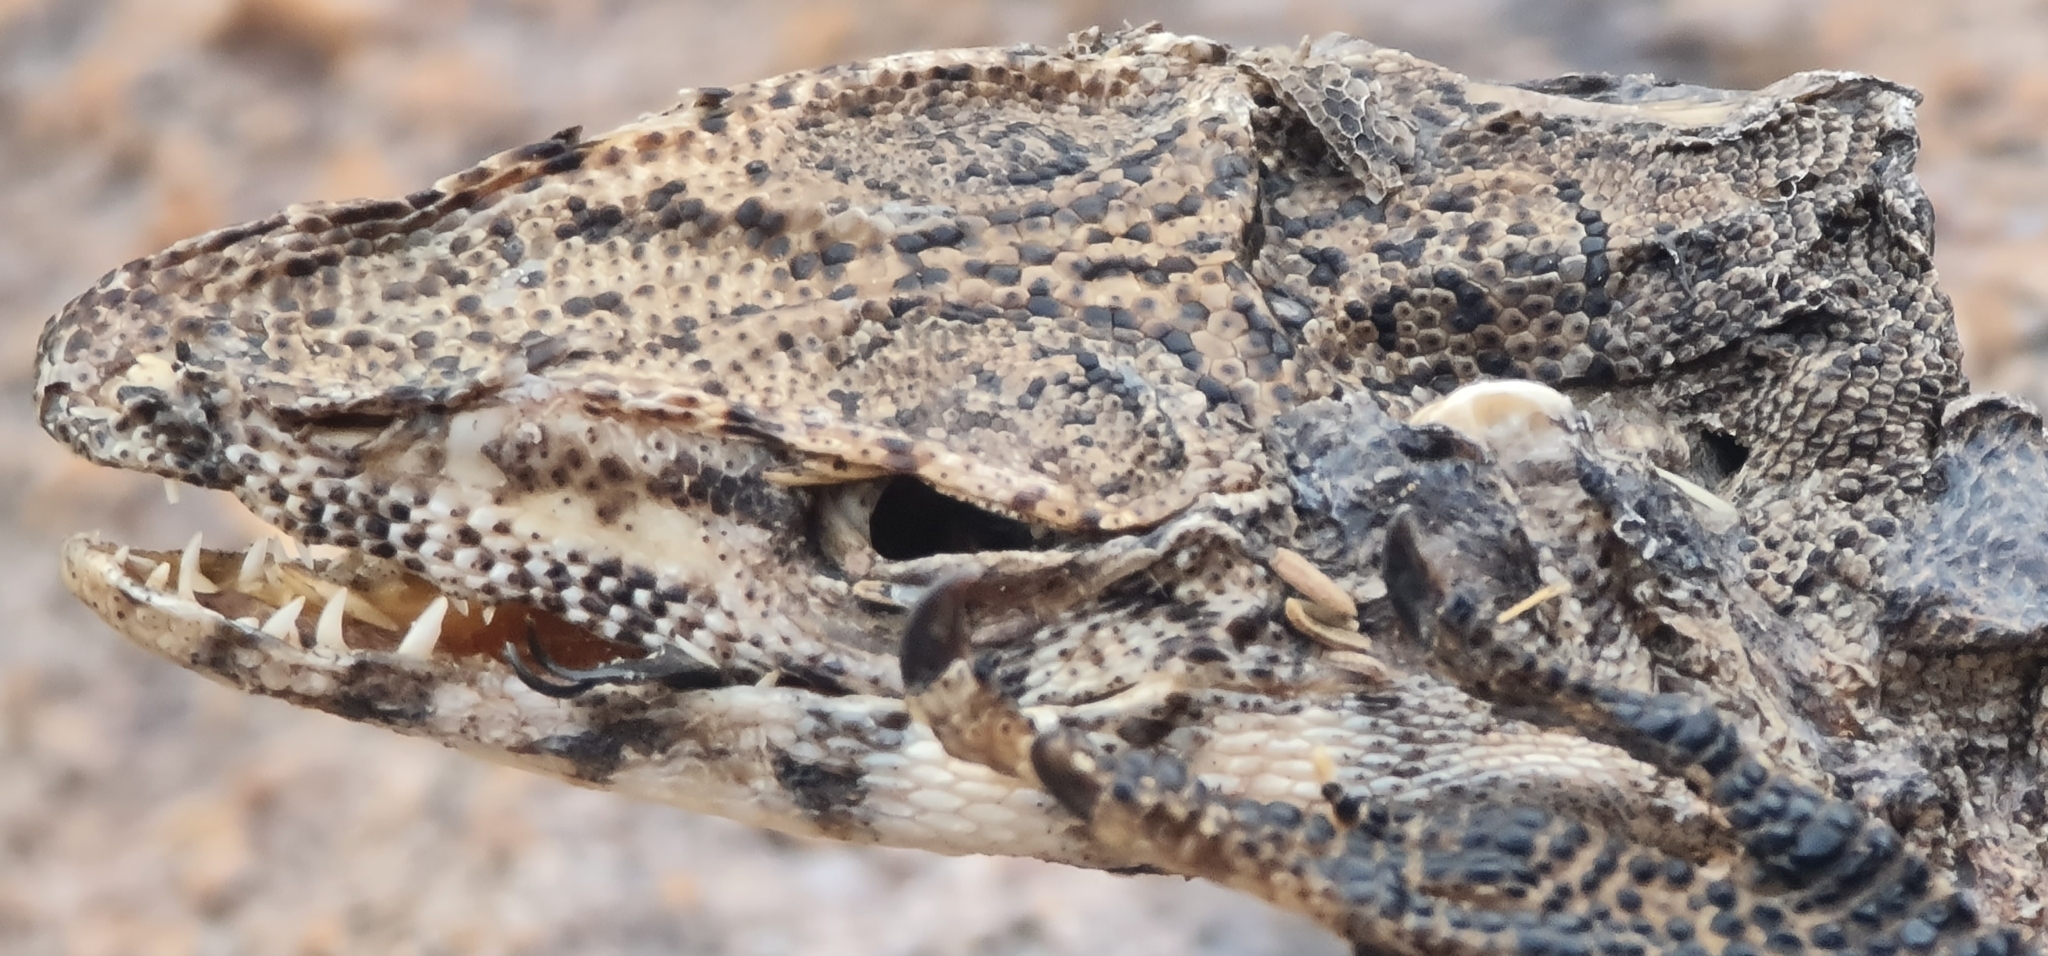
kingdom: Animalia
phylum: Chordata
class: Squamata
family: Varanidae
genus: Varanus
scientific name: Varanus glebopalma
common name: Black-palmed rock monitor
